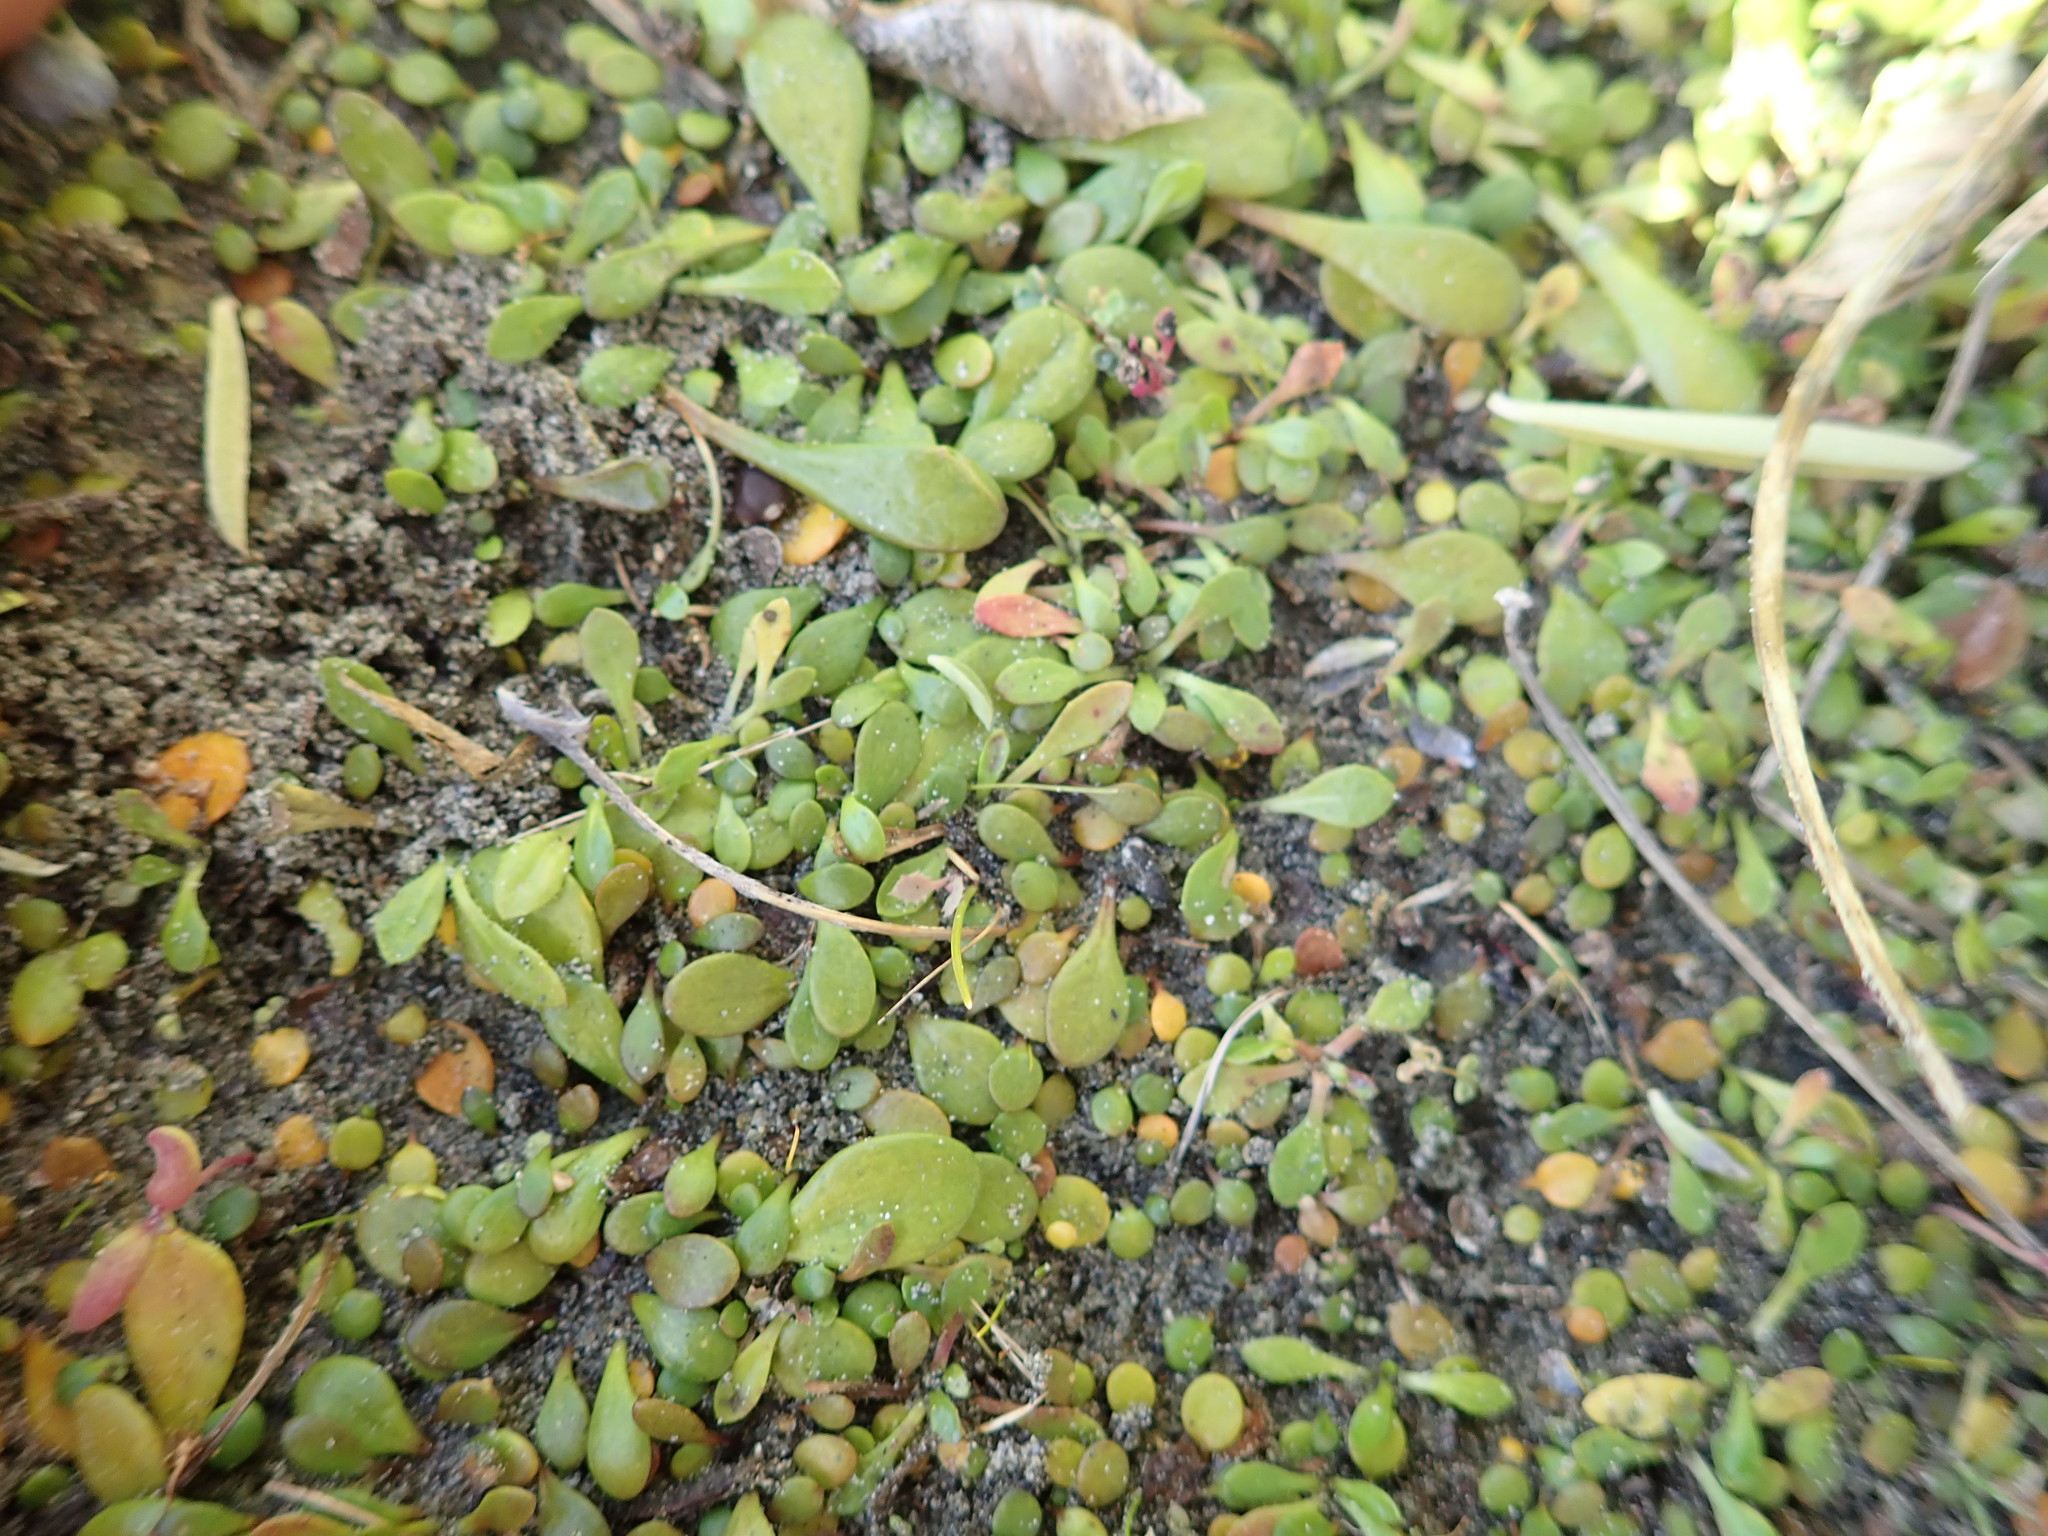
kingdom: Plantae
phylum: Tracheophyta
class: Magnoliopsida
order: Asterales
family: Goodeniaceae
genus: Goodenia
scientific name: Goodenia radicans
